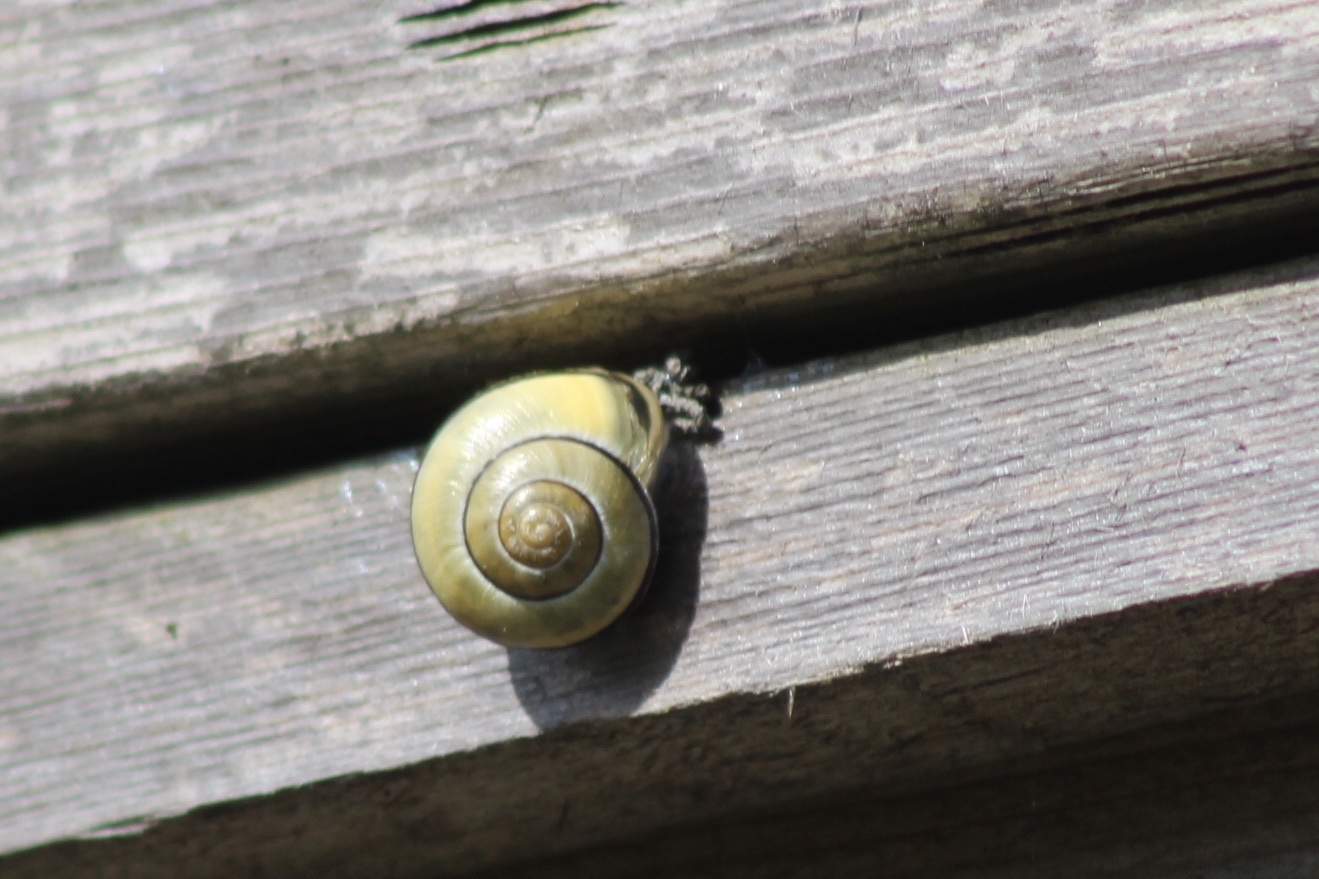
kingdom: Animalia
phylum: Mollusca
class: Gastropoda
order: Stylommatophora
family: Helicidae
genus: Cepaea
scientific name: Cepaea nemoralis
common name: Grovesnail
